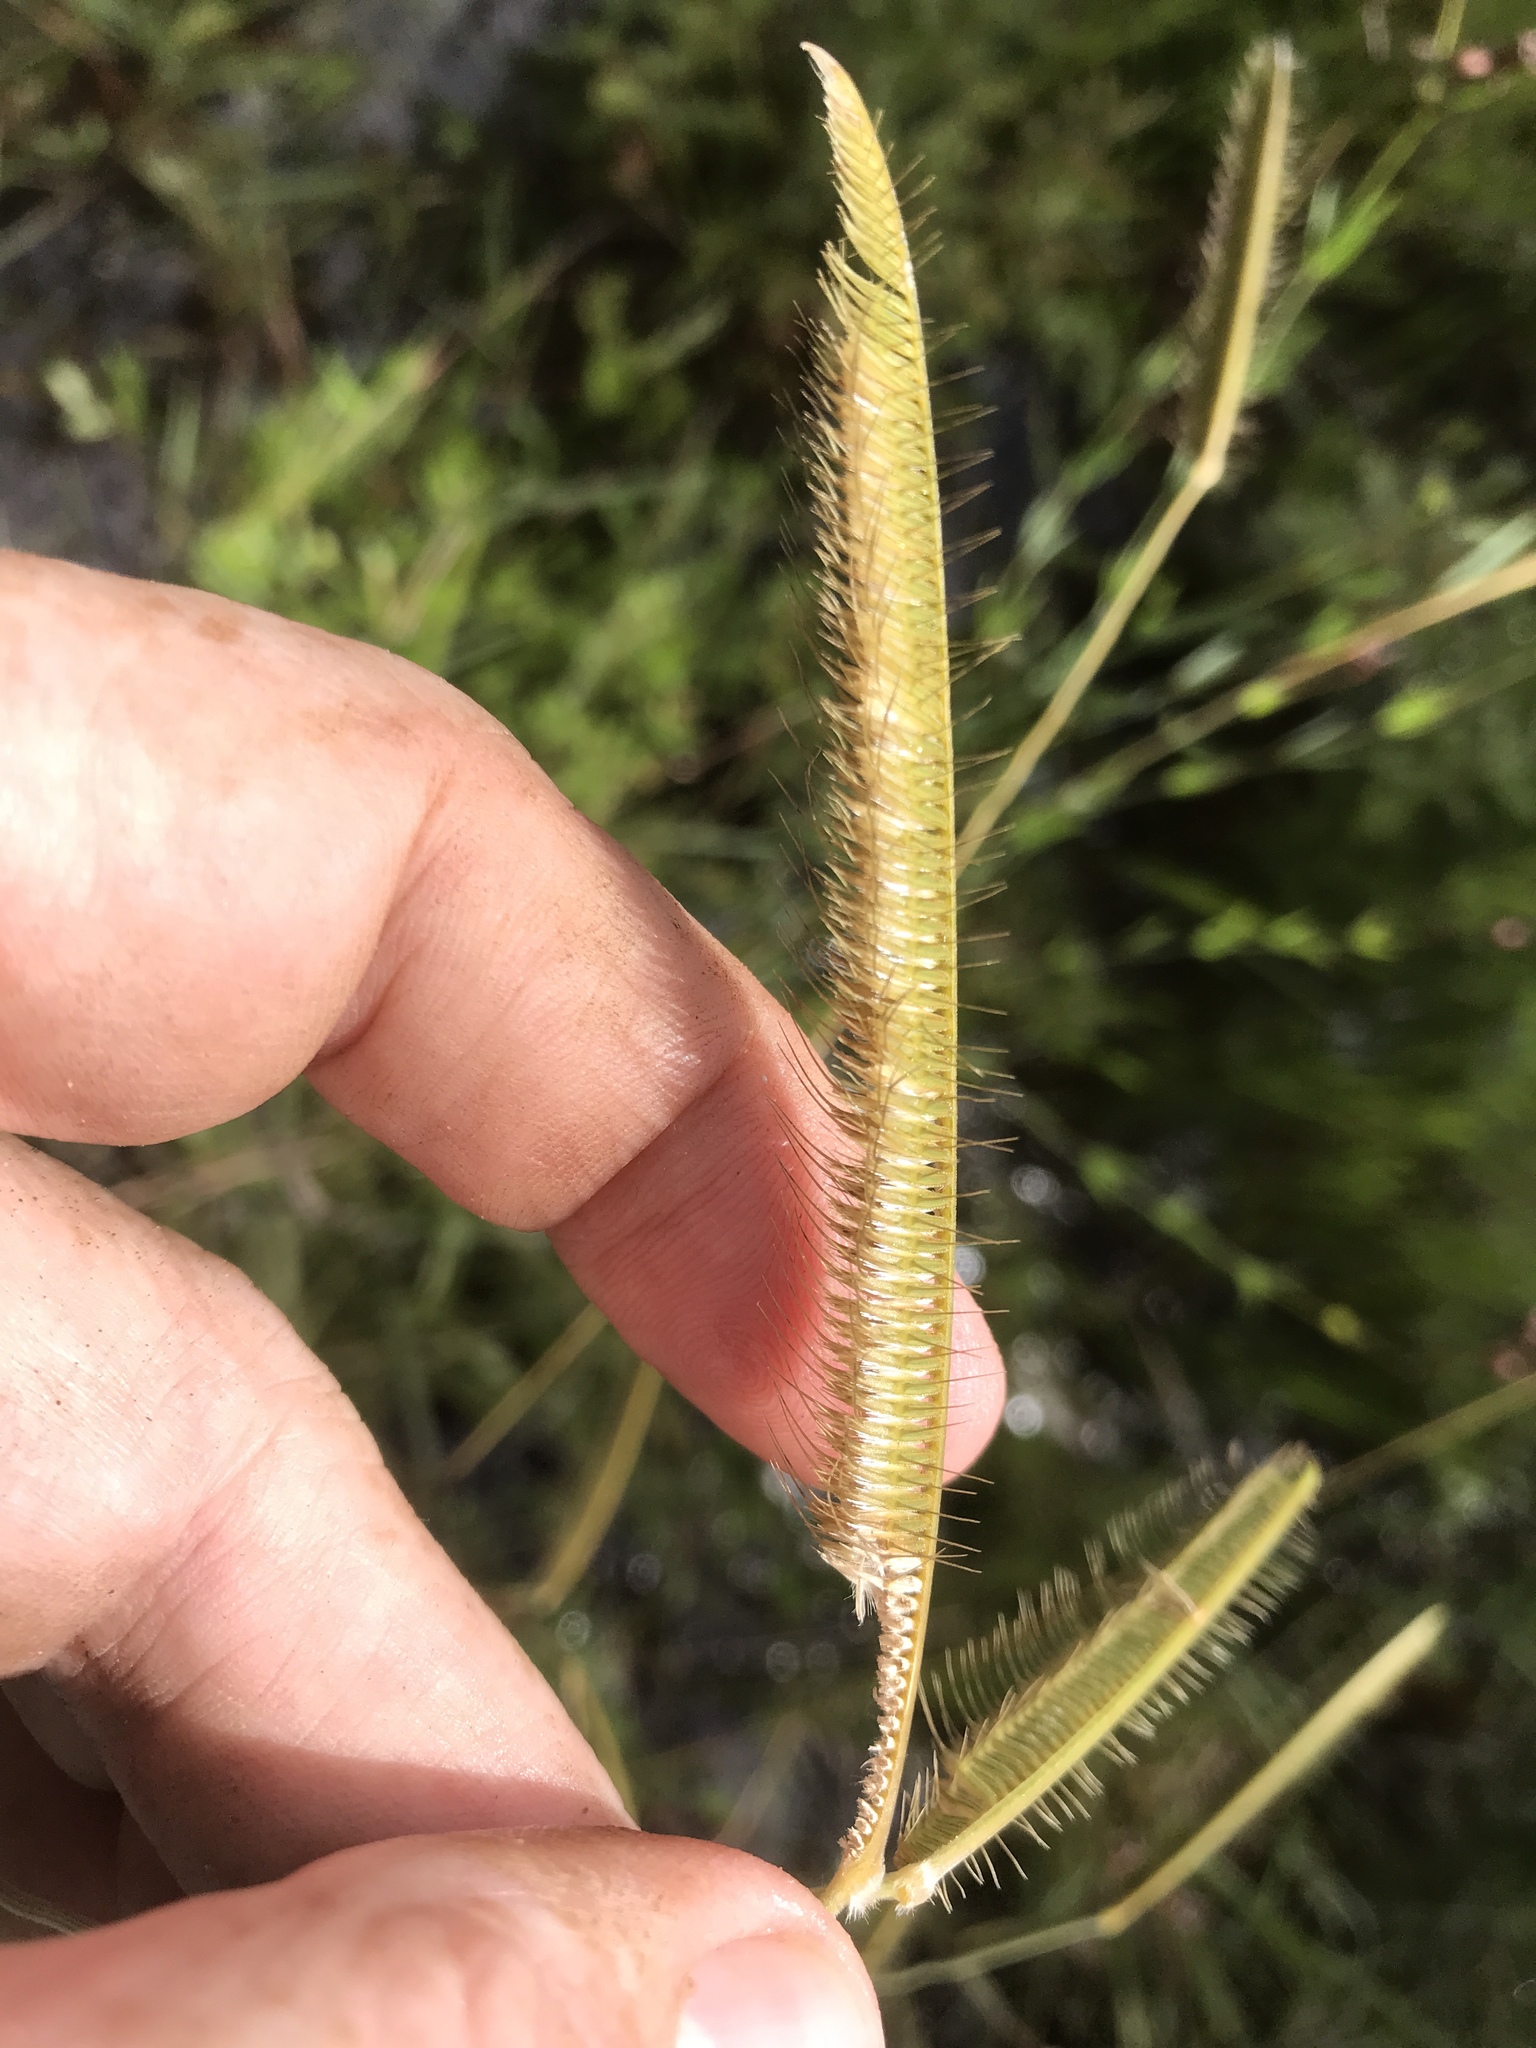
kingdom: Plantae
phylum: Tracheophyta
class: Liliopsida
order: Poales
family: Poaceae
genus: Ctenium
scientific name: Ctenium aromaticum
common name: Toothache grass
